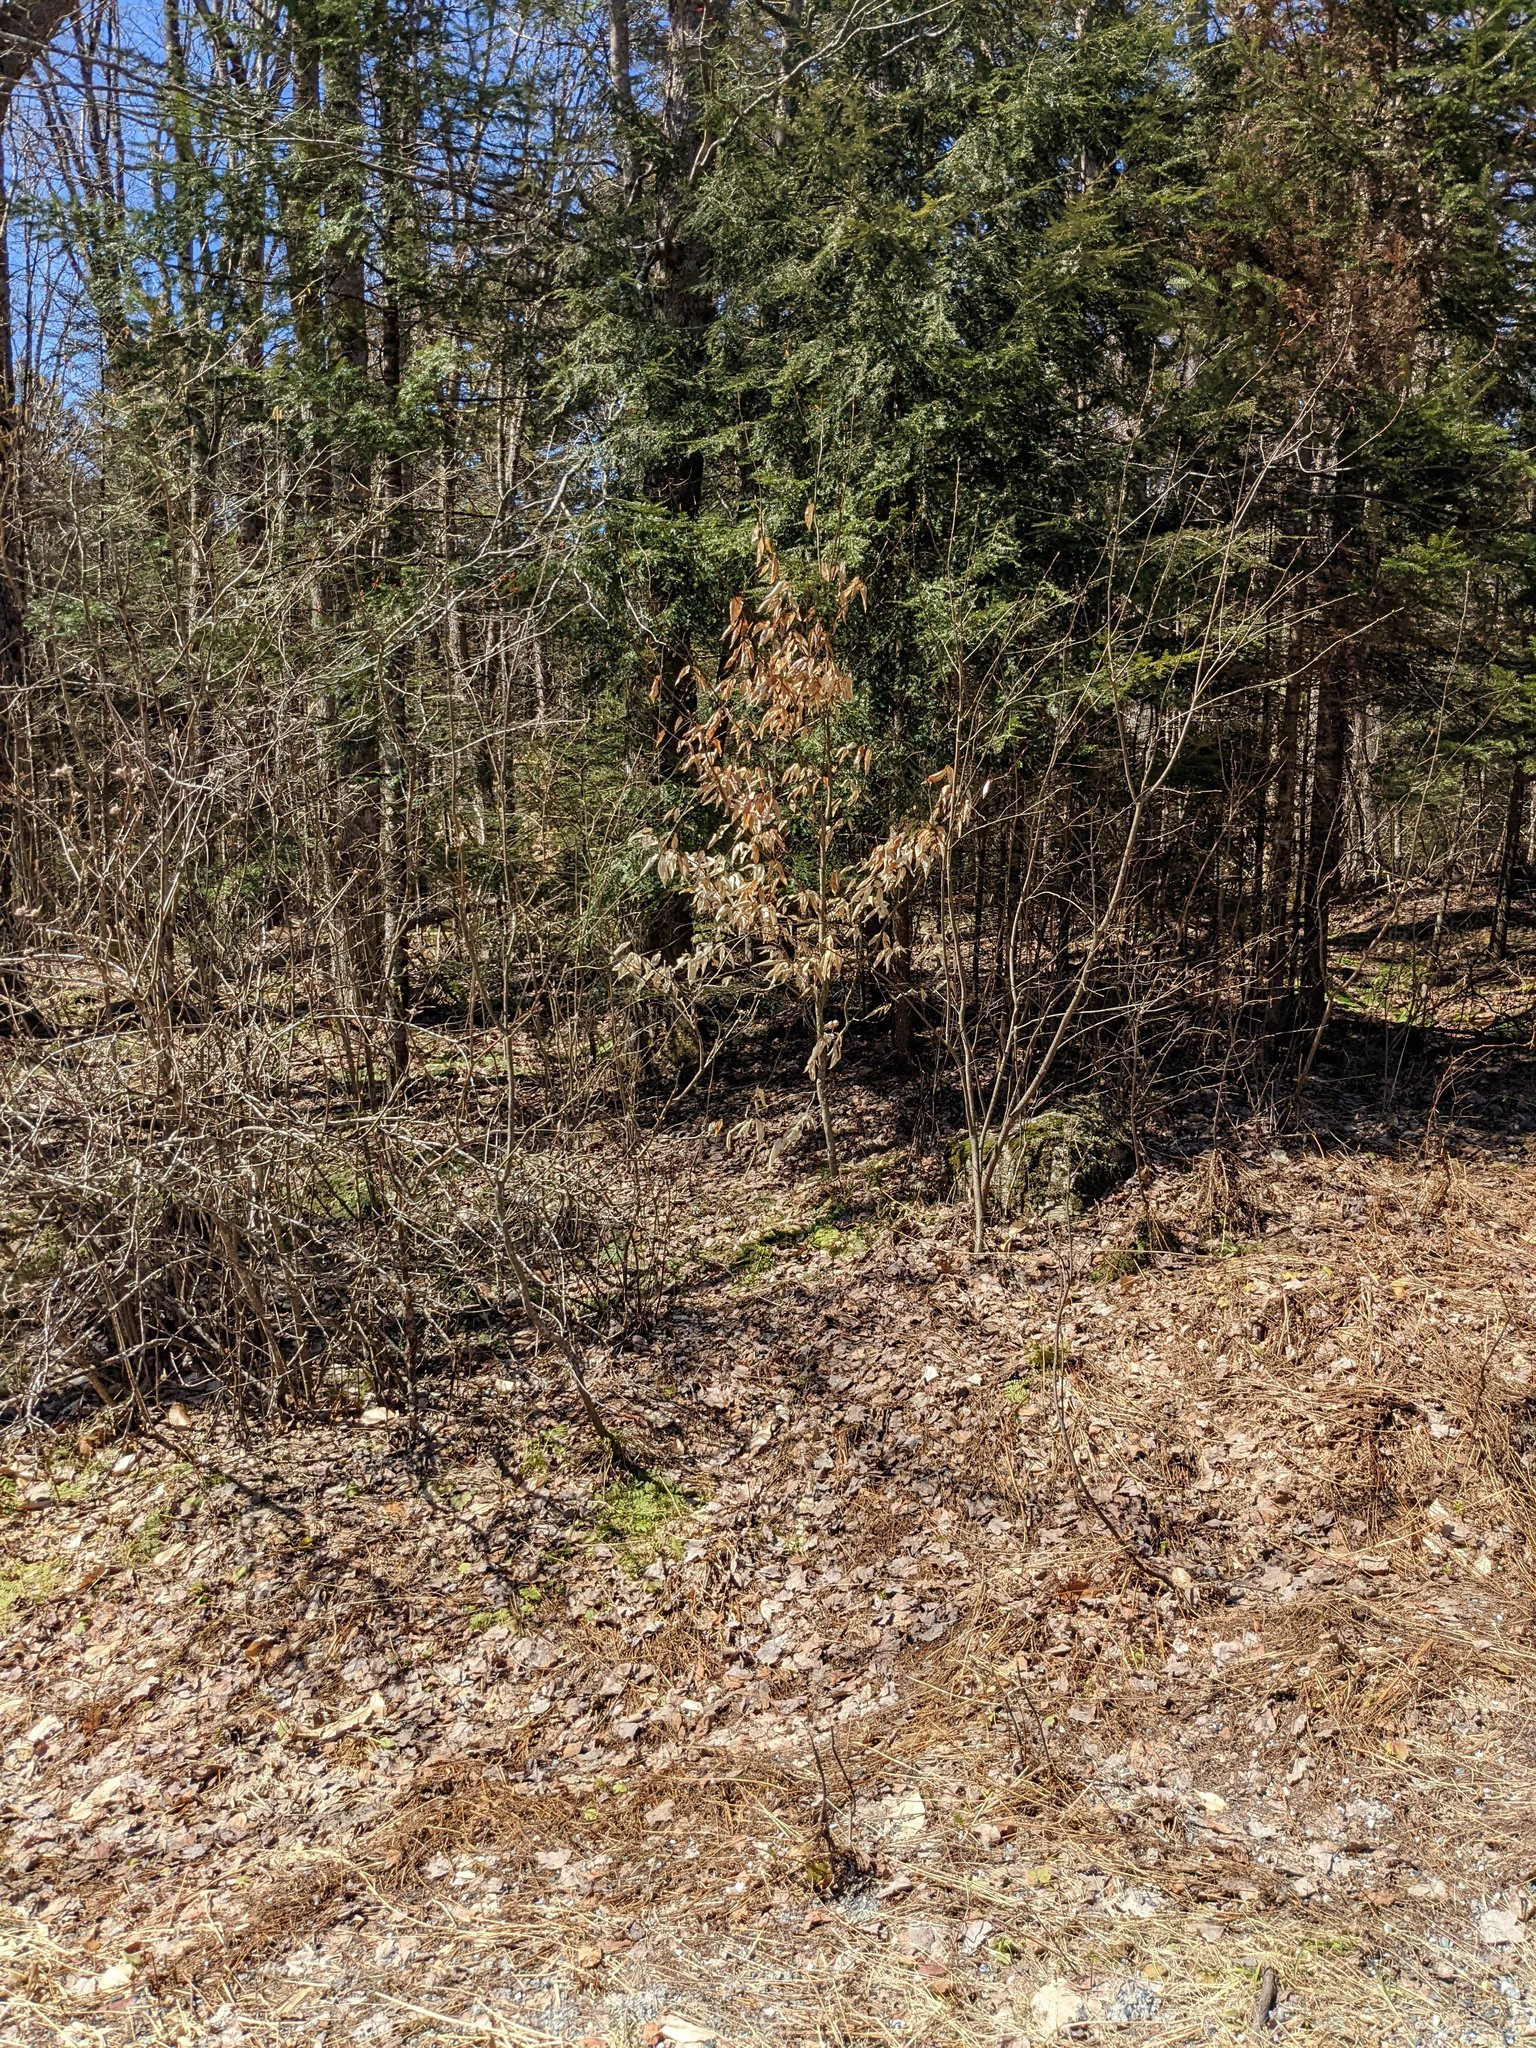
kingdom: Plantae
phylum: Tracheophyta
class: Magnoliopsida
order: Fagales
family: Fagaceae
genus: Fagus
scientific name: Fagus grandifolia
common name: American beech
